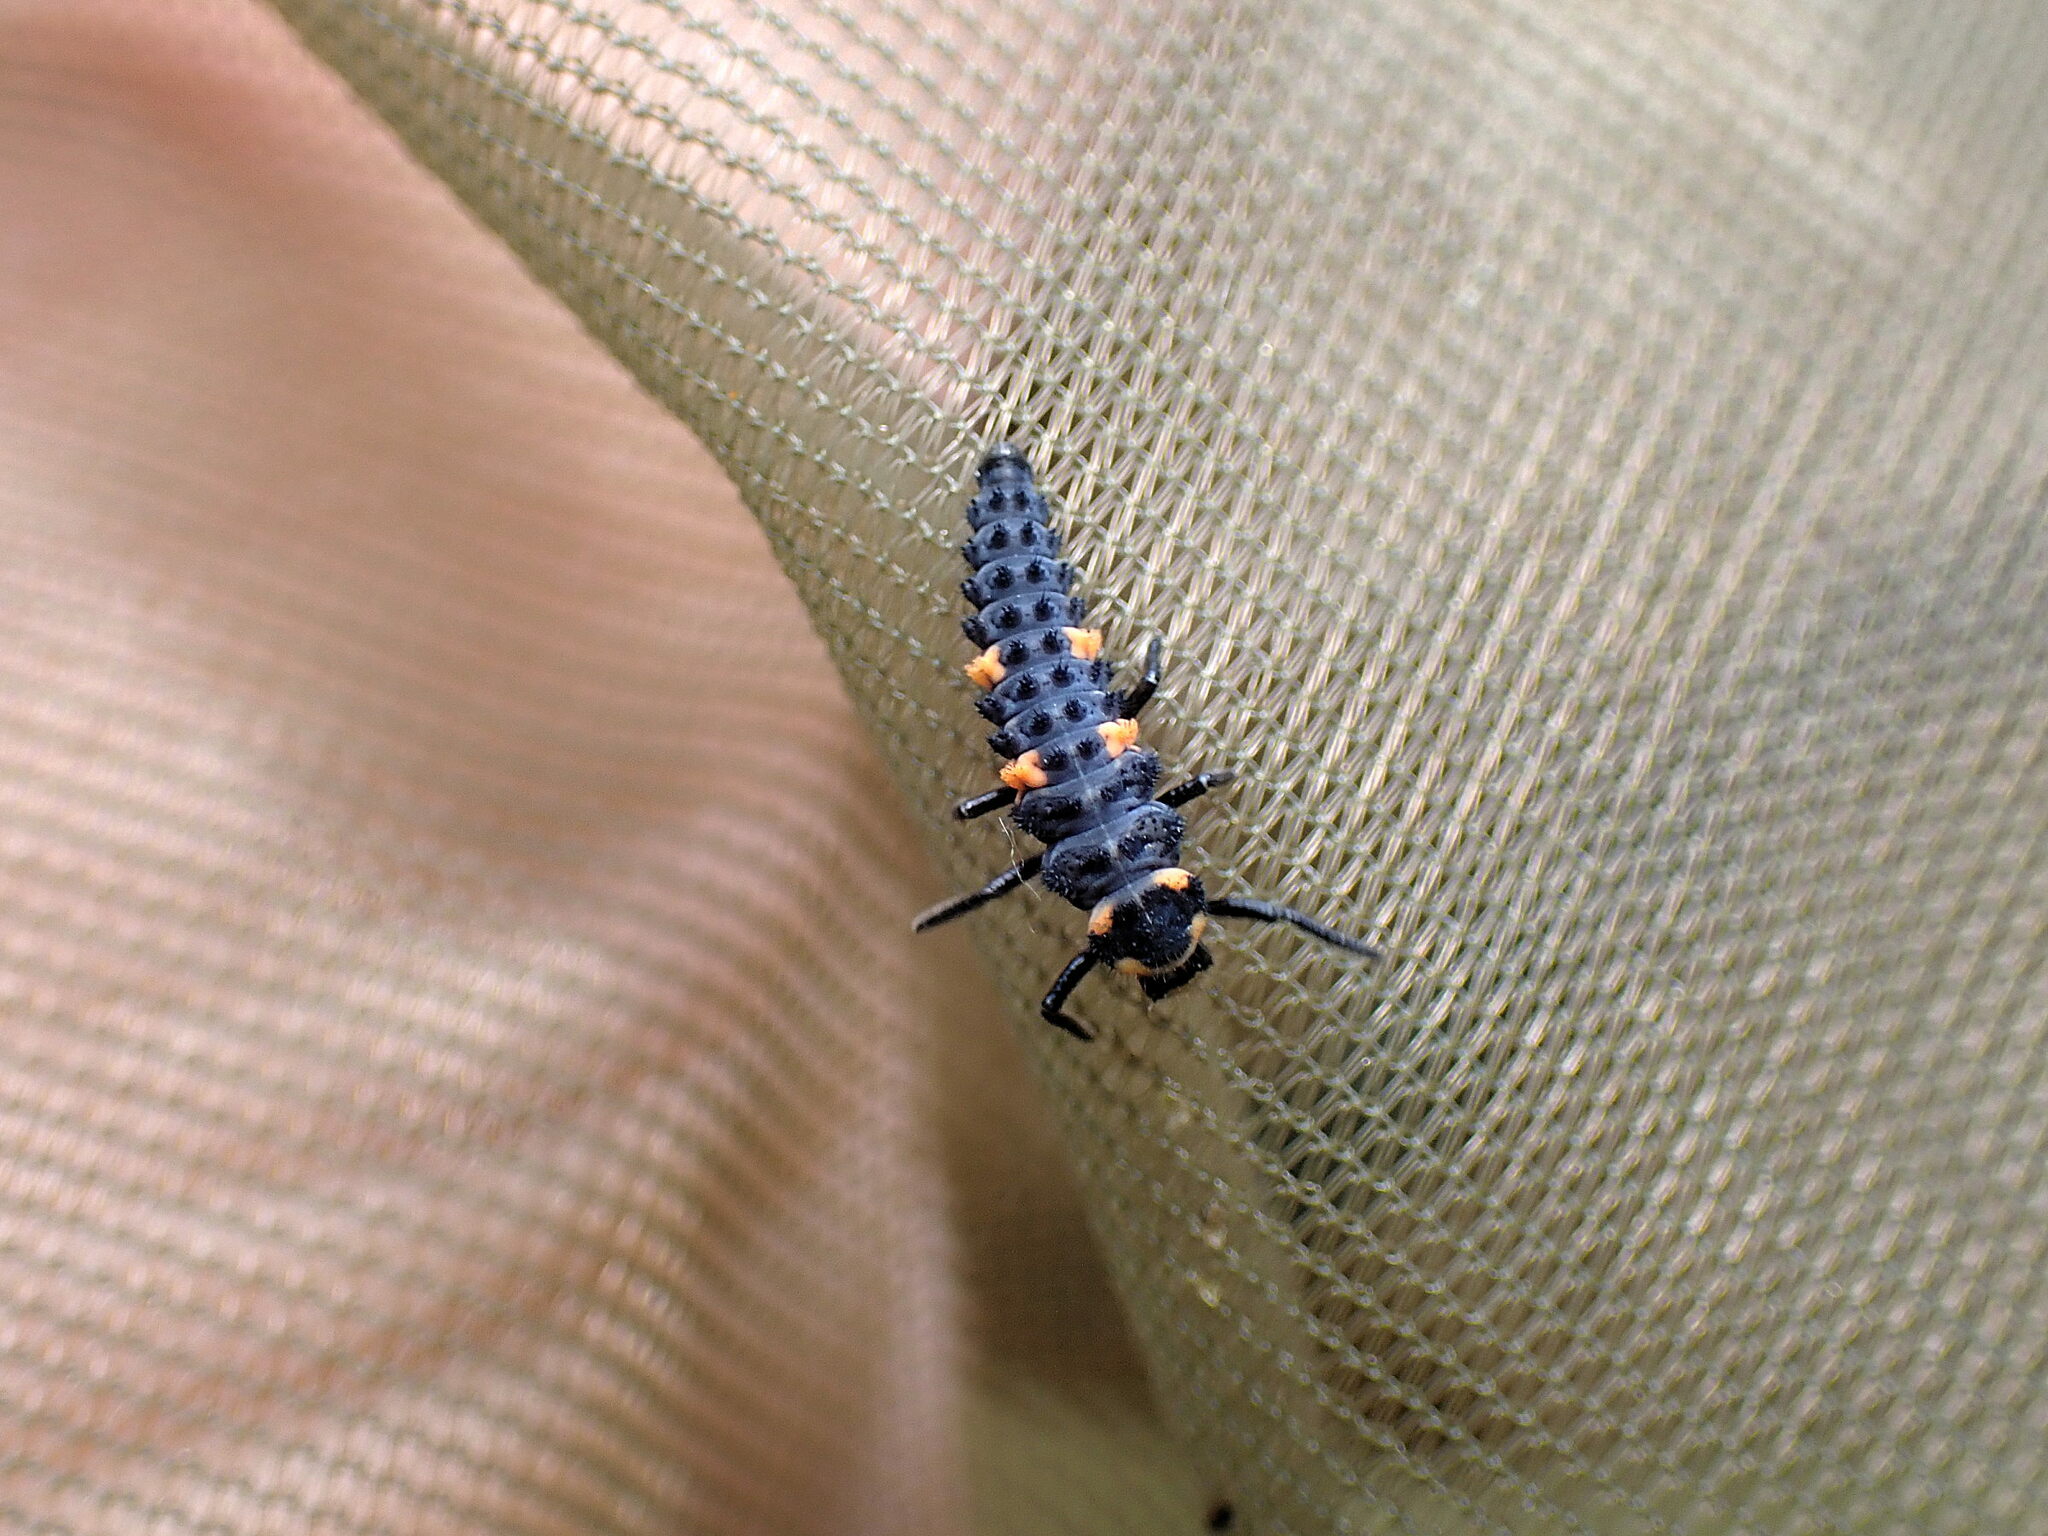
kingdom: Animalia
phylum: Arthropoda
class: Insecta
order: Coleoptera
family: Coccinellidae
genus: Coccinella
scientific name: Coccinella septempunctata
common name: Sevenspotted lady beetle
